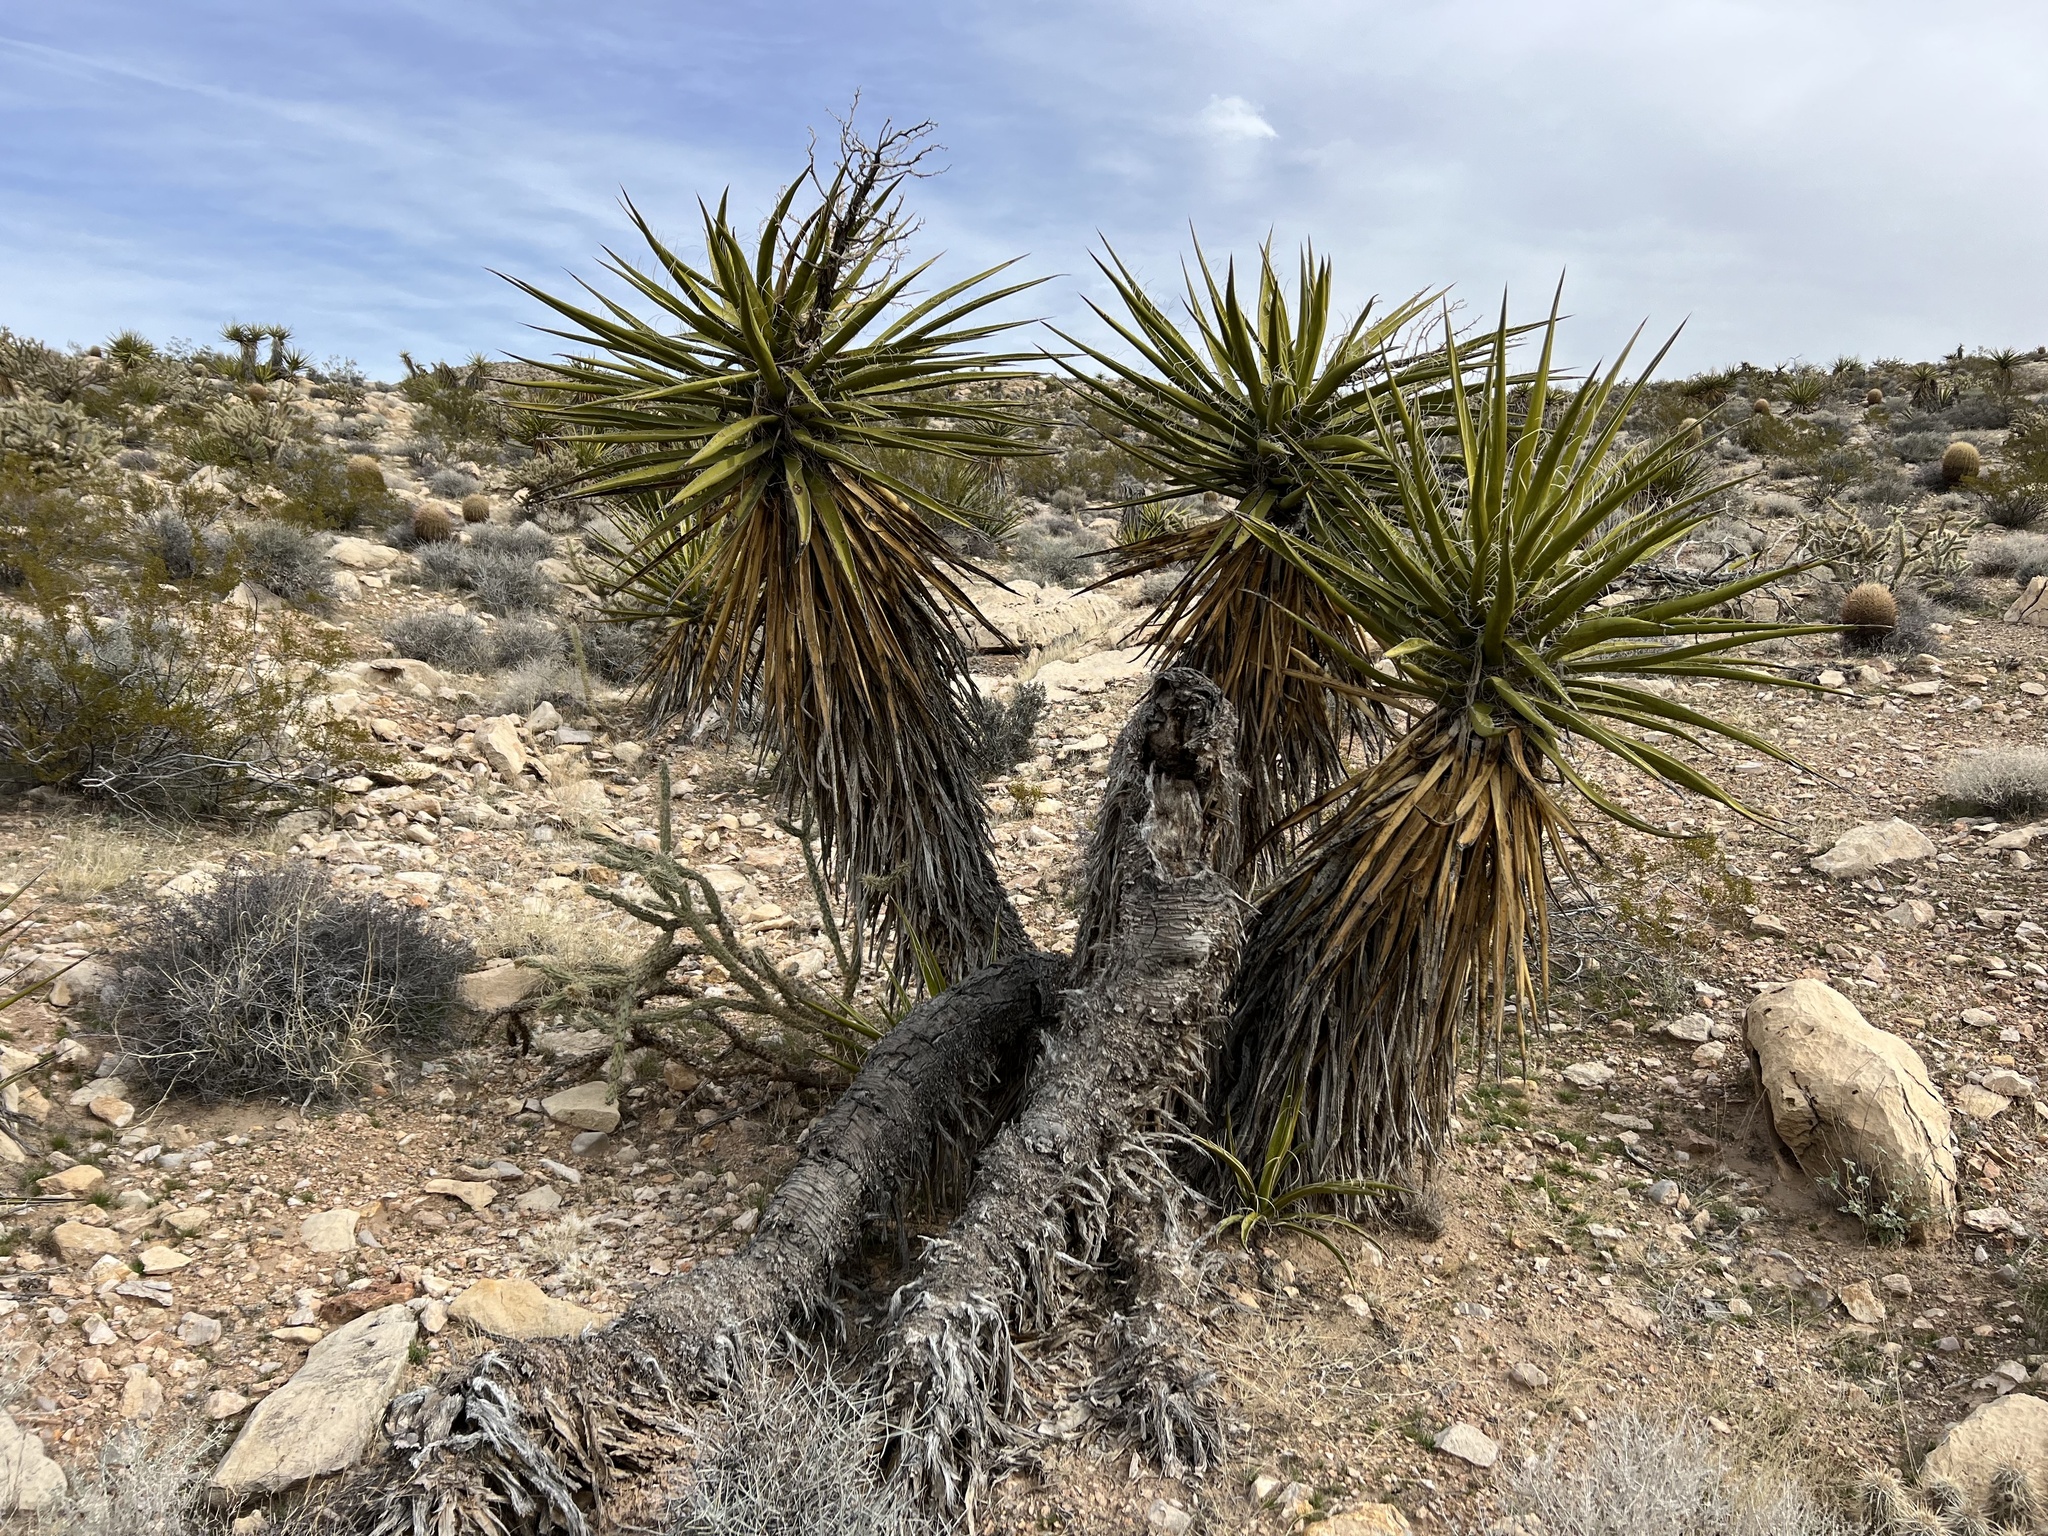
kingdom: Plantae
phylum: Tracheophyta
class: Liliopsida
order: Asparagales
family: Asparagaceae
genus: Yucca
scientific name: Yucca schidigera
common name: Mojave yucca
